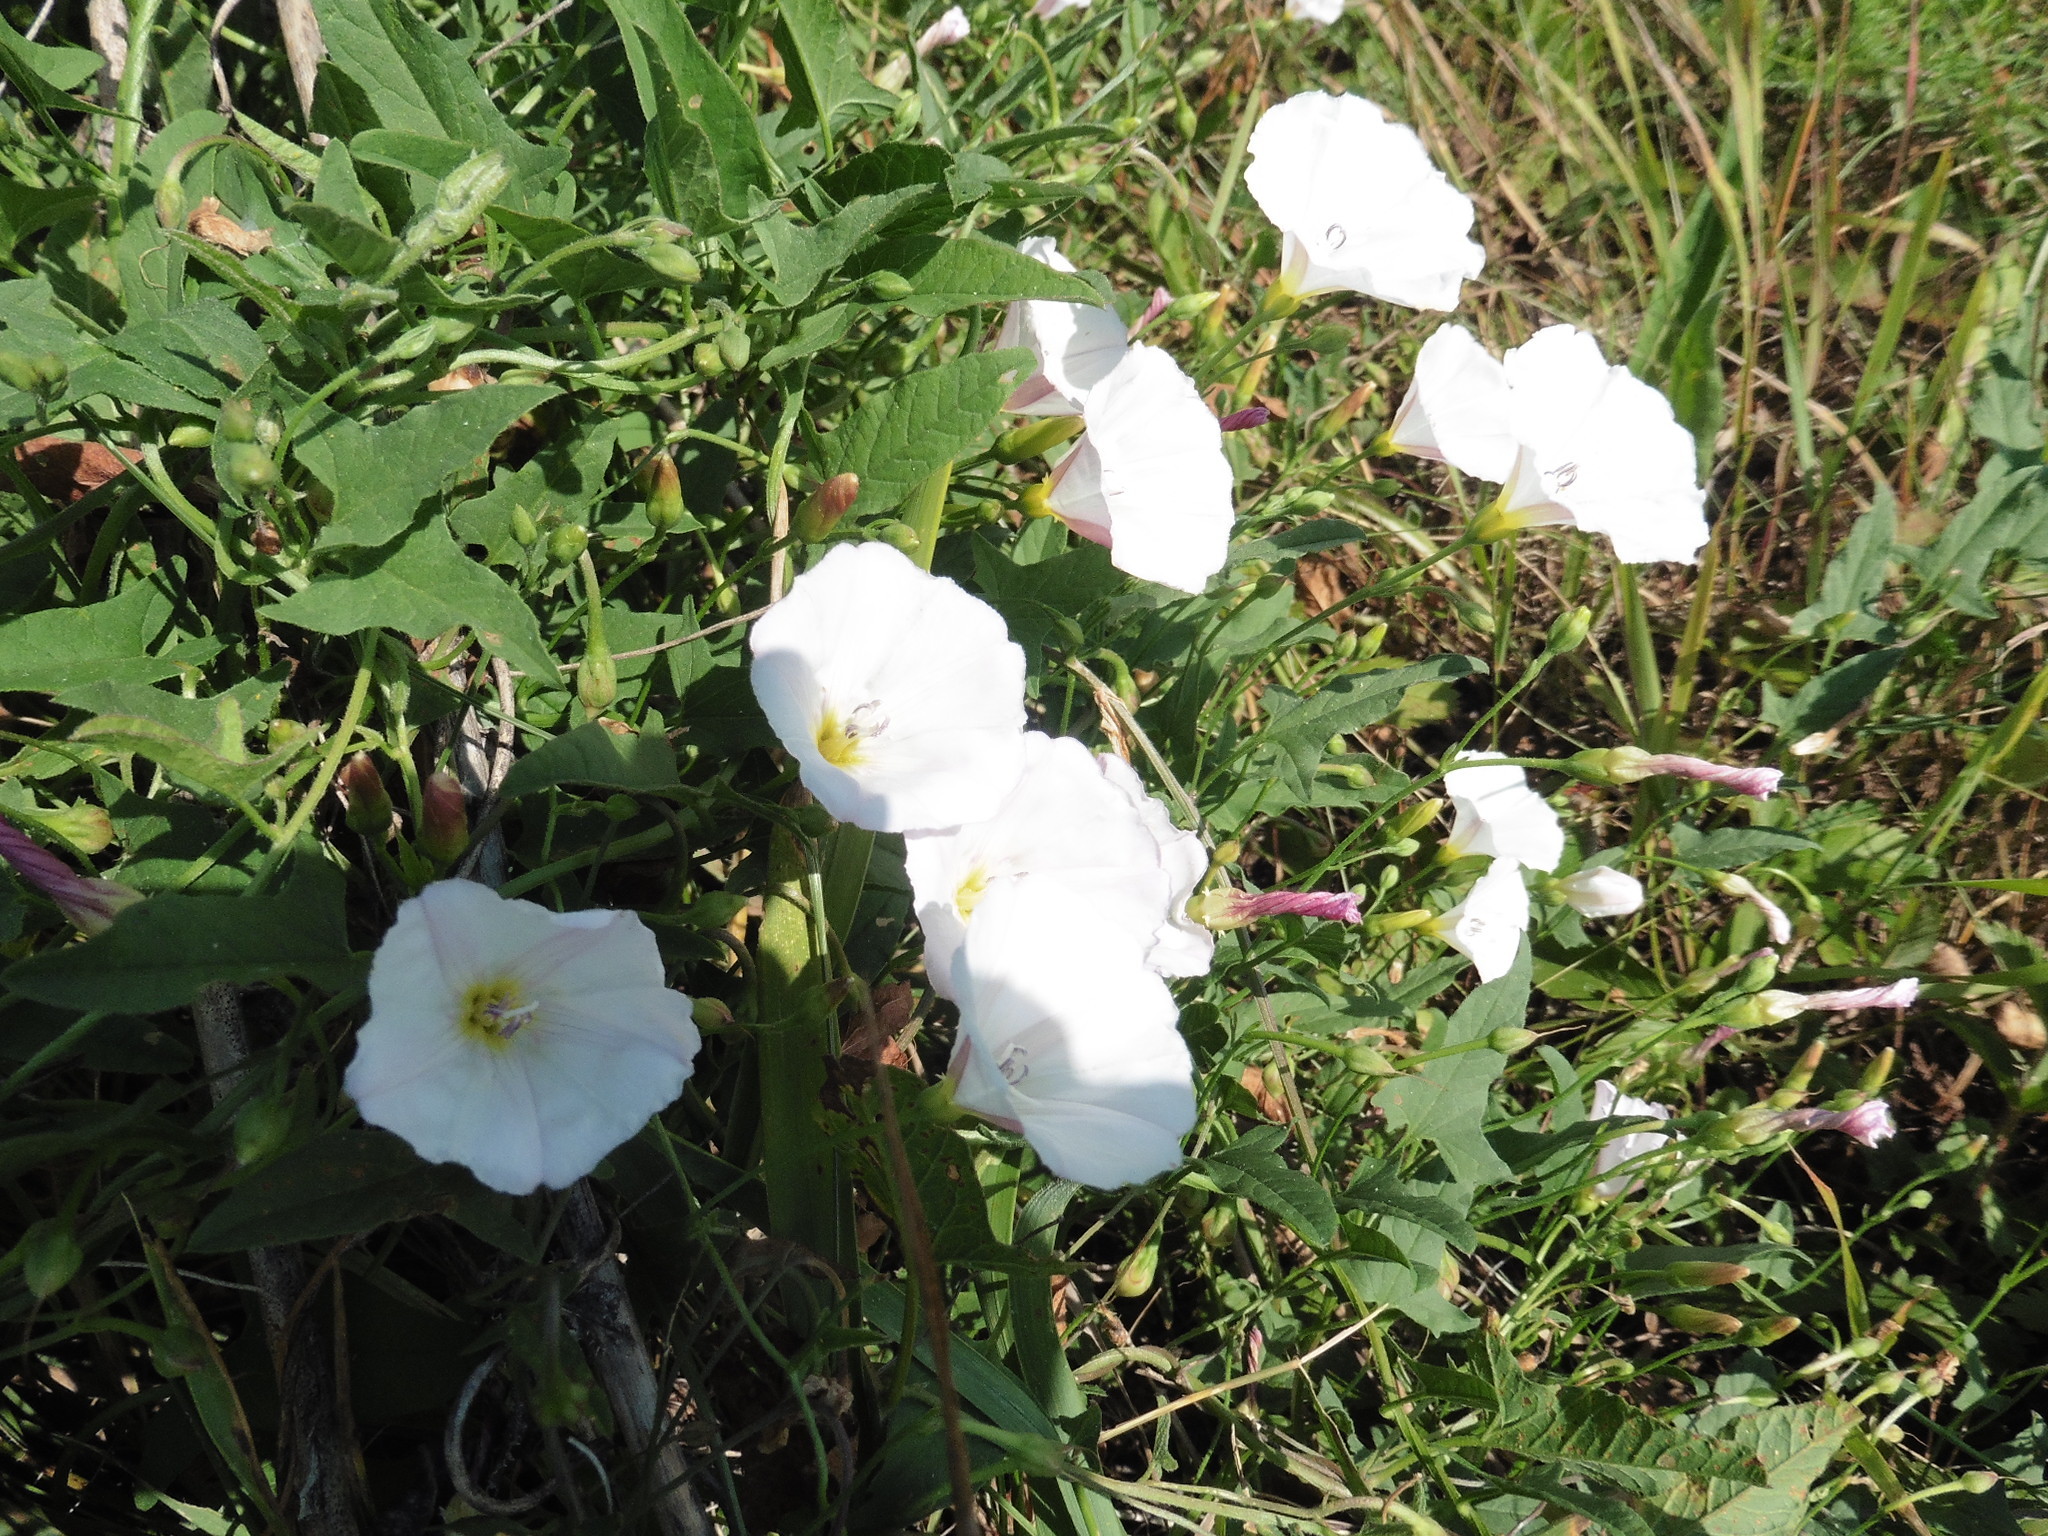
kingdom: Plantae
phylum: Tracheophyta
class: Magnoliopsida
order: Solanales
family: Convolvulaceae
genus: Convolvulus
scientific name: Convolvulus arvensis
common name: Field bindweed
